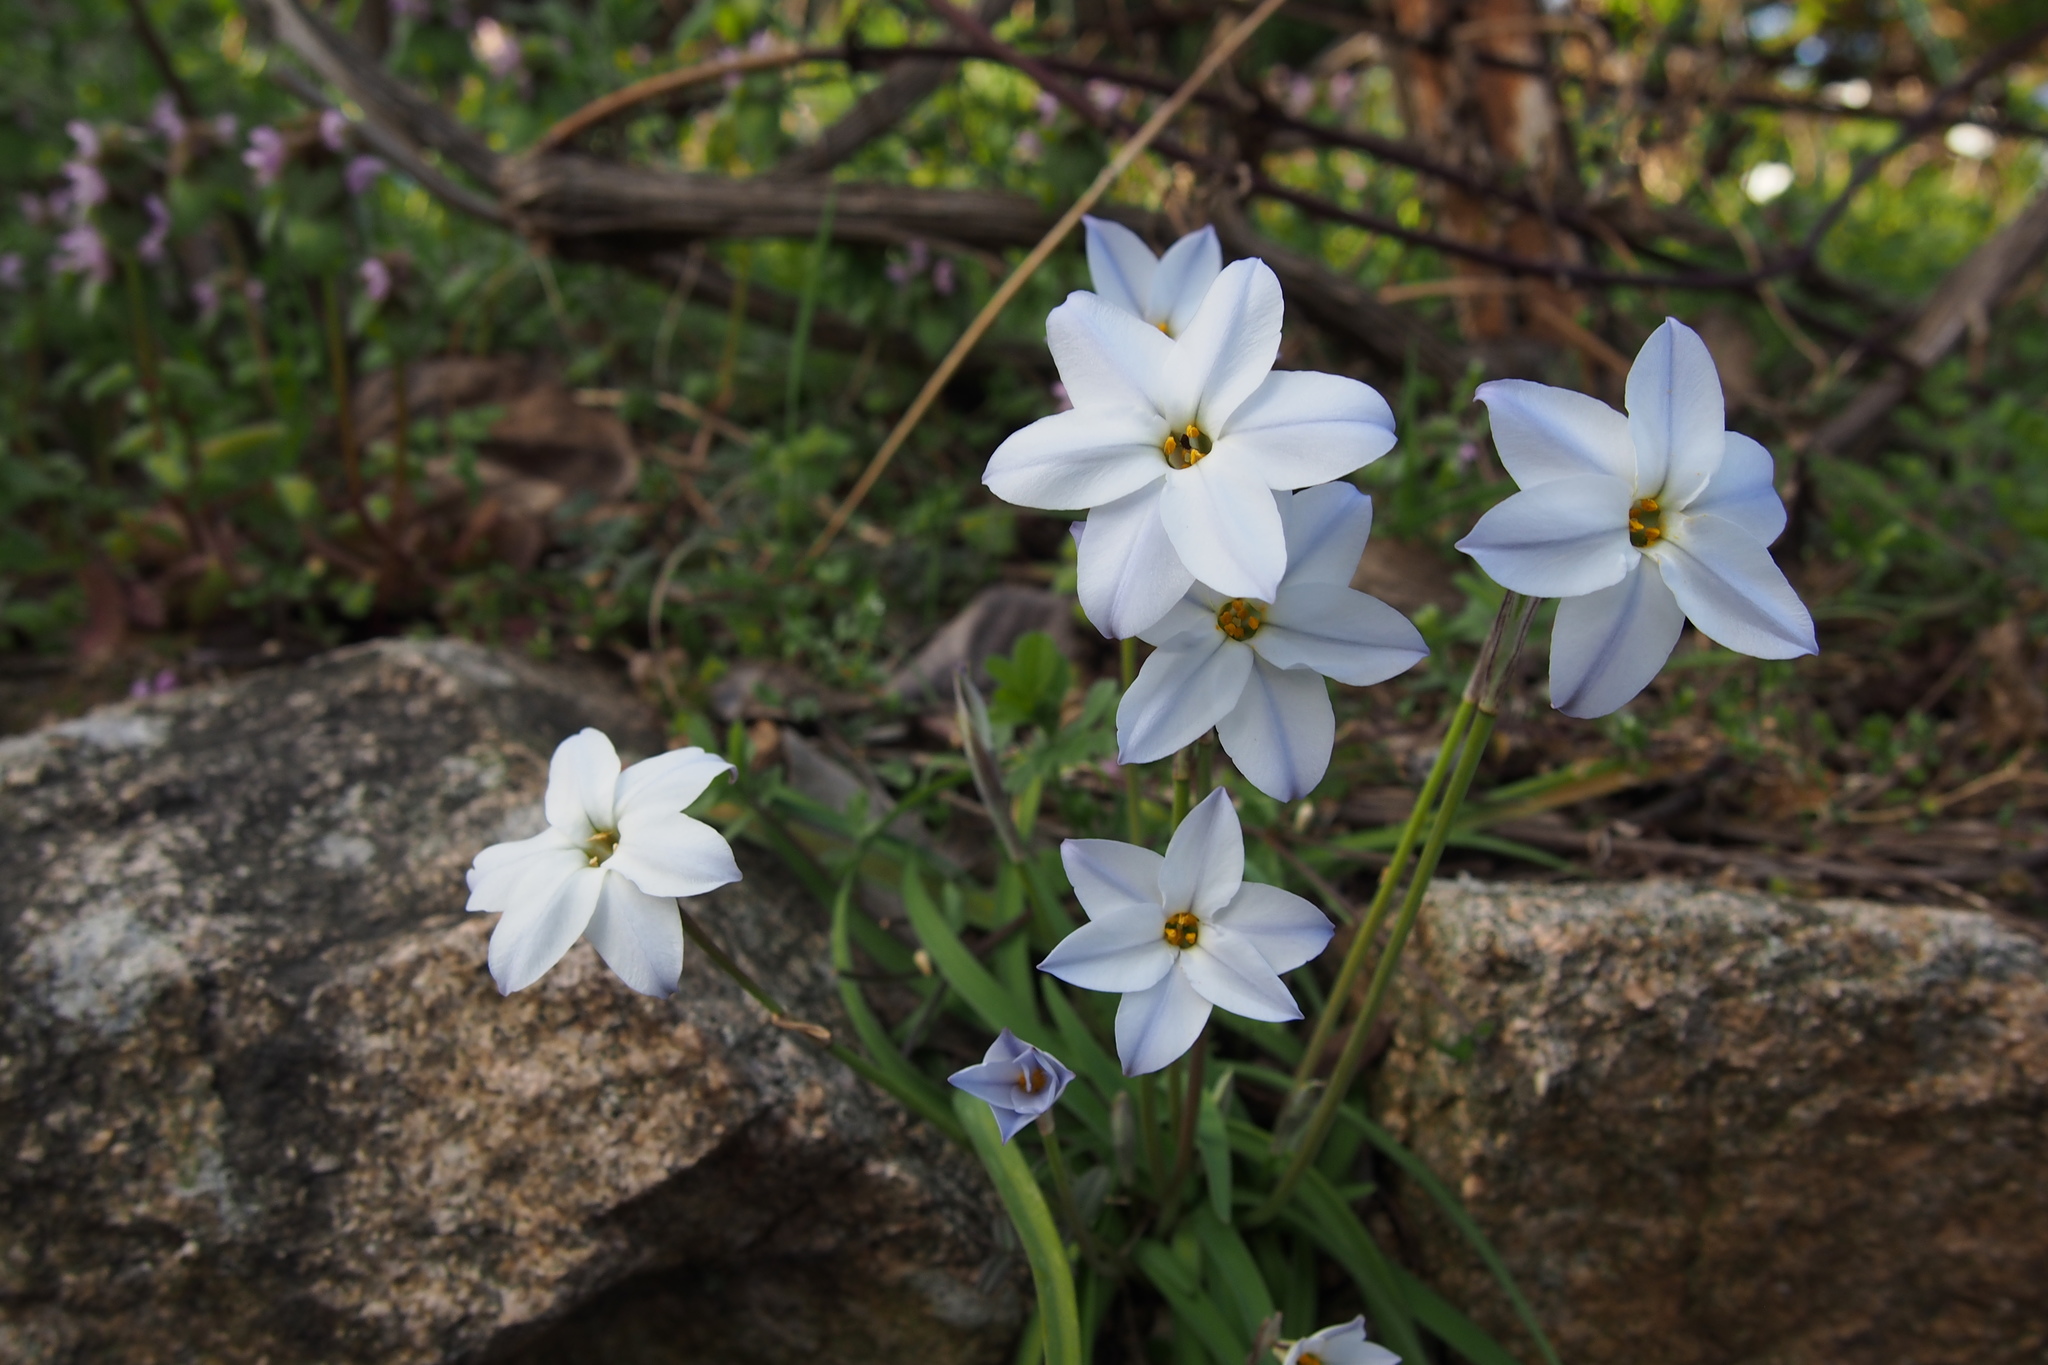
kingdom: Plantae
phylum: Tracheophyta
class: Liliopsida
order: Asparagales
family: Amaryllidaceae
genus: Ipheion
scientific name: Ipheion uniflorum
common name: Spring starflower
